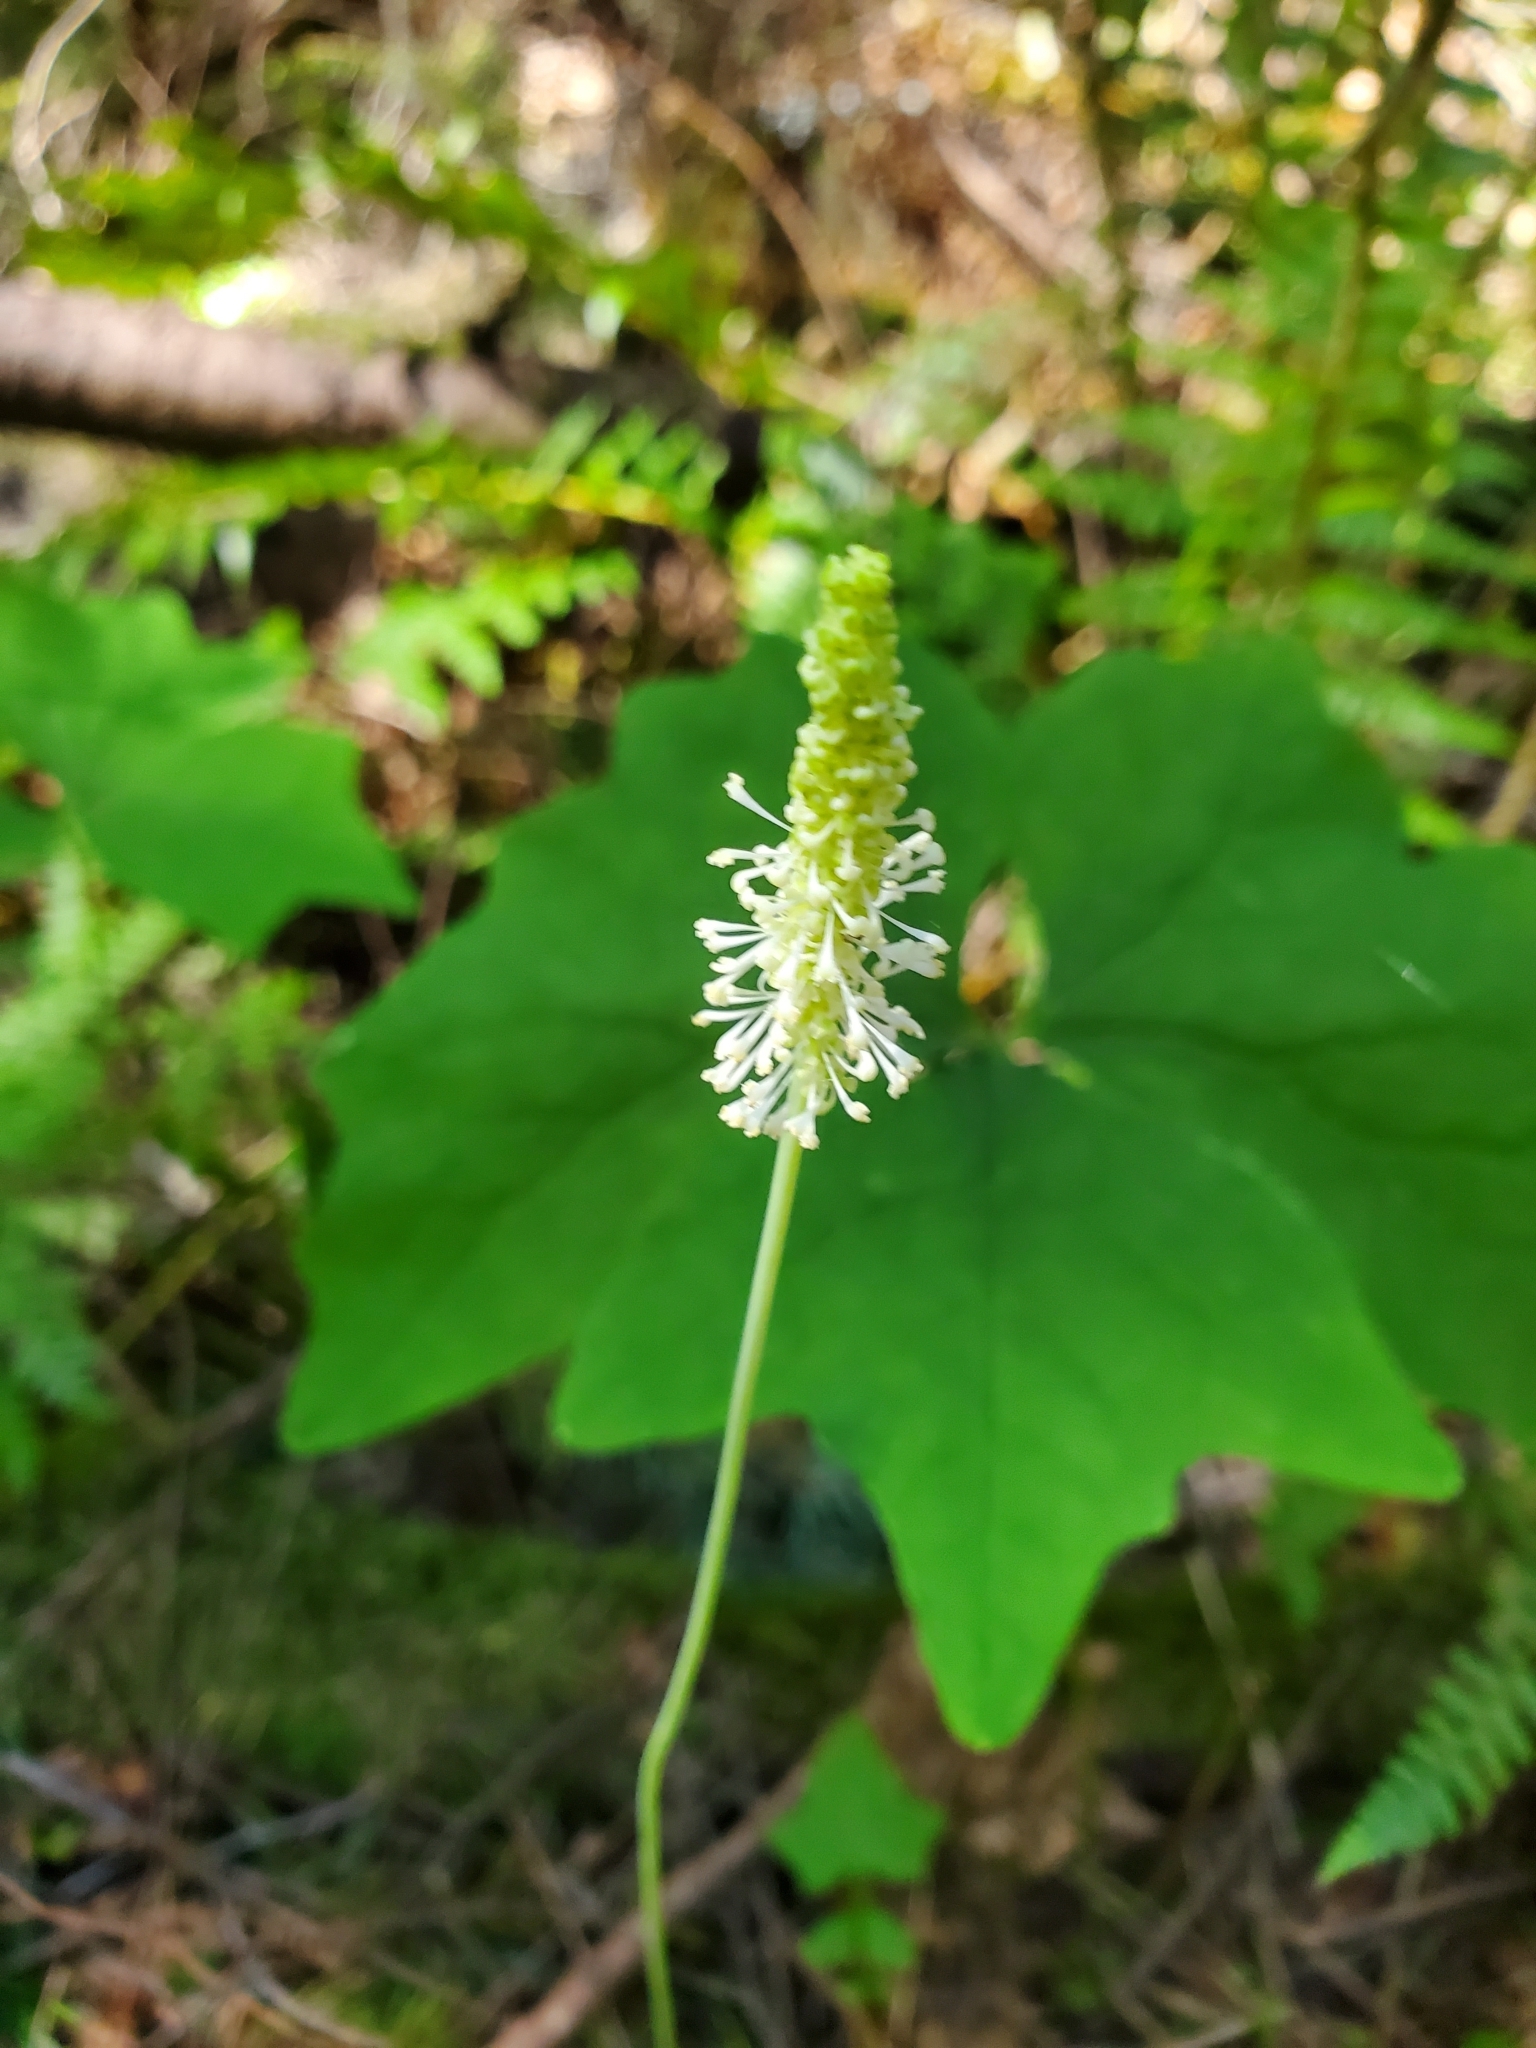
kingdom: Plantae
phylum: Tracheophyta
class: Magnoliopsida
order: Ranunculales
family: Berberidaceae
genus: Achlys
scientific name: Achlys triphylla
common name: Vanilla-leaf
